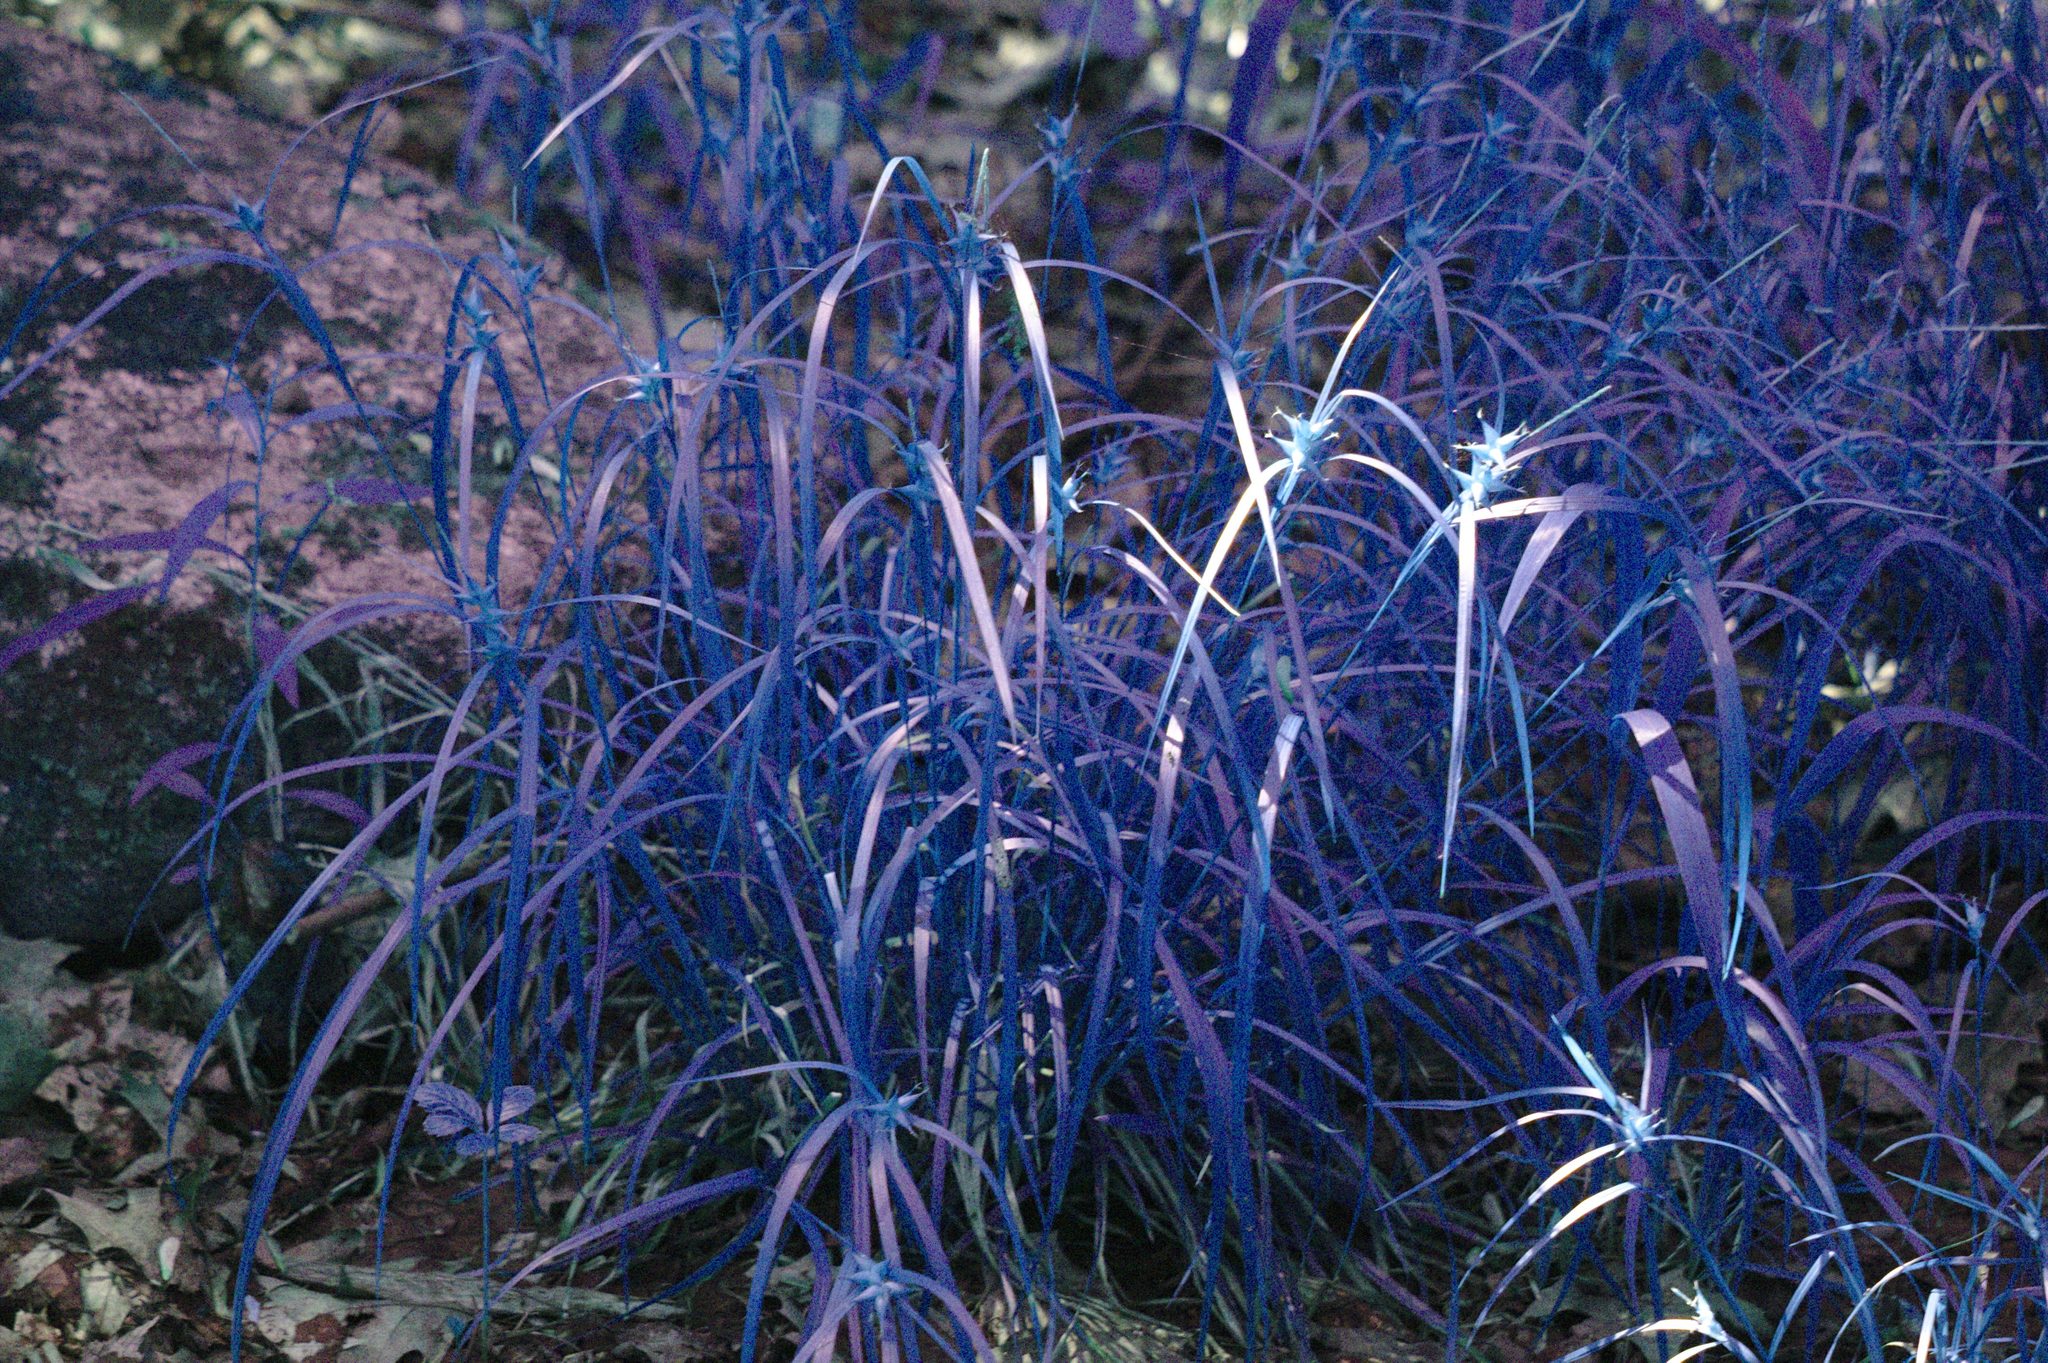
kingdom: Plantae
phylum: Tracheophyta
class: Liliopsida
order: Poales
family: Cyperaceae
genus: Carex
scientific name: Carex intumescens
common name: Greater bladder sedge
